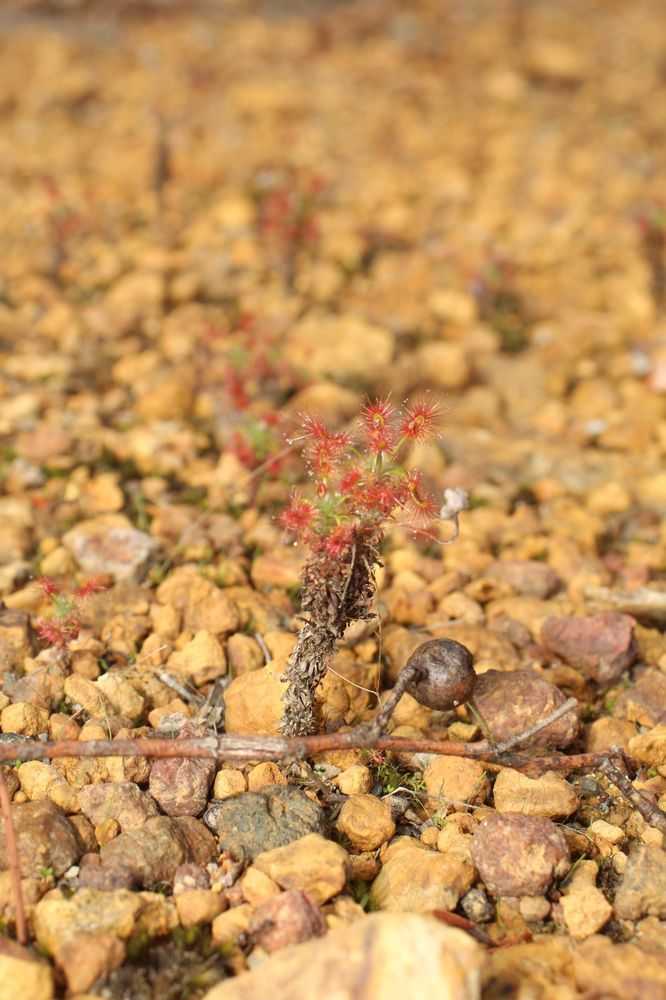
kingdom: Plantae
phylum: Tracheophyta
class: Magnoliopsida
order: Caryophyllales
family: Droseraceae
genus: Drosera
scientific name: Drosera lasiantha
